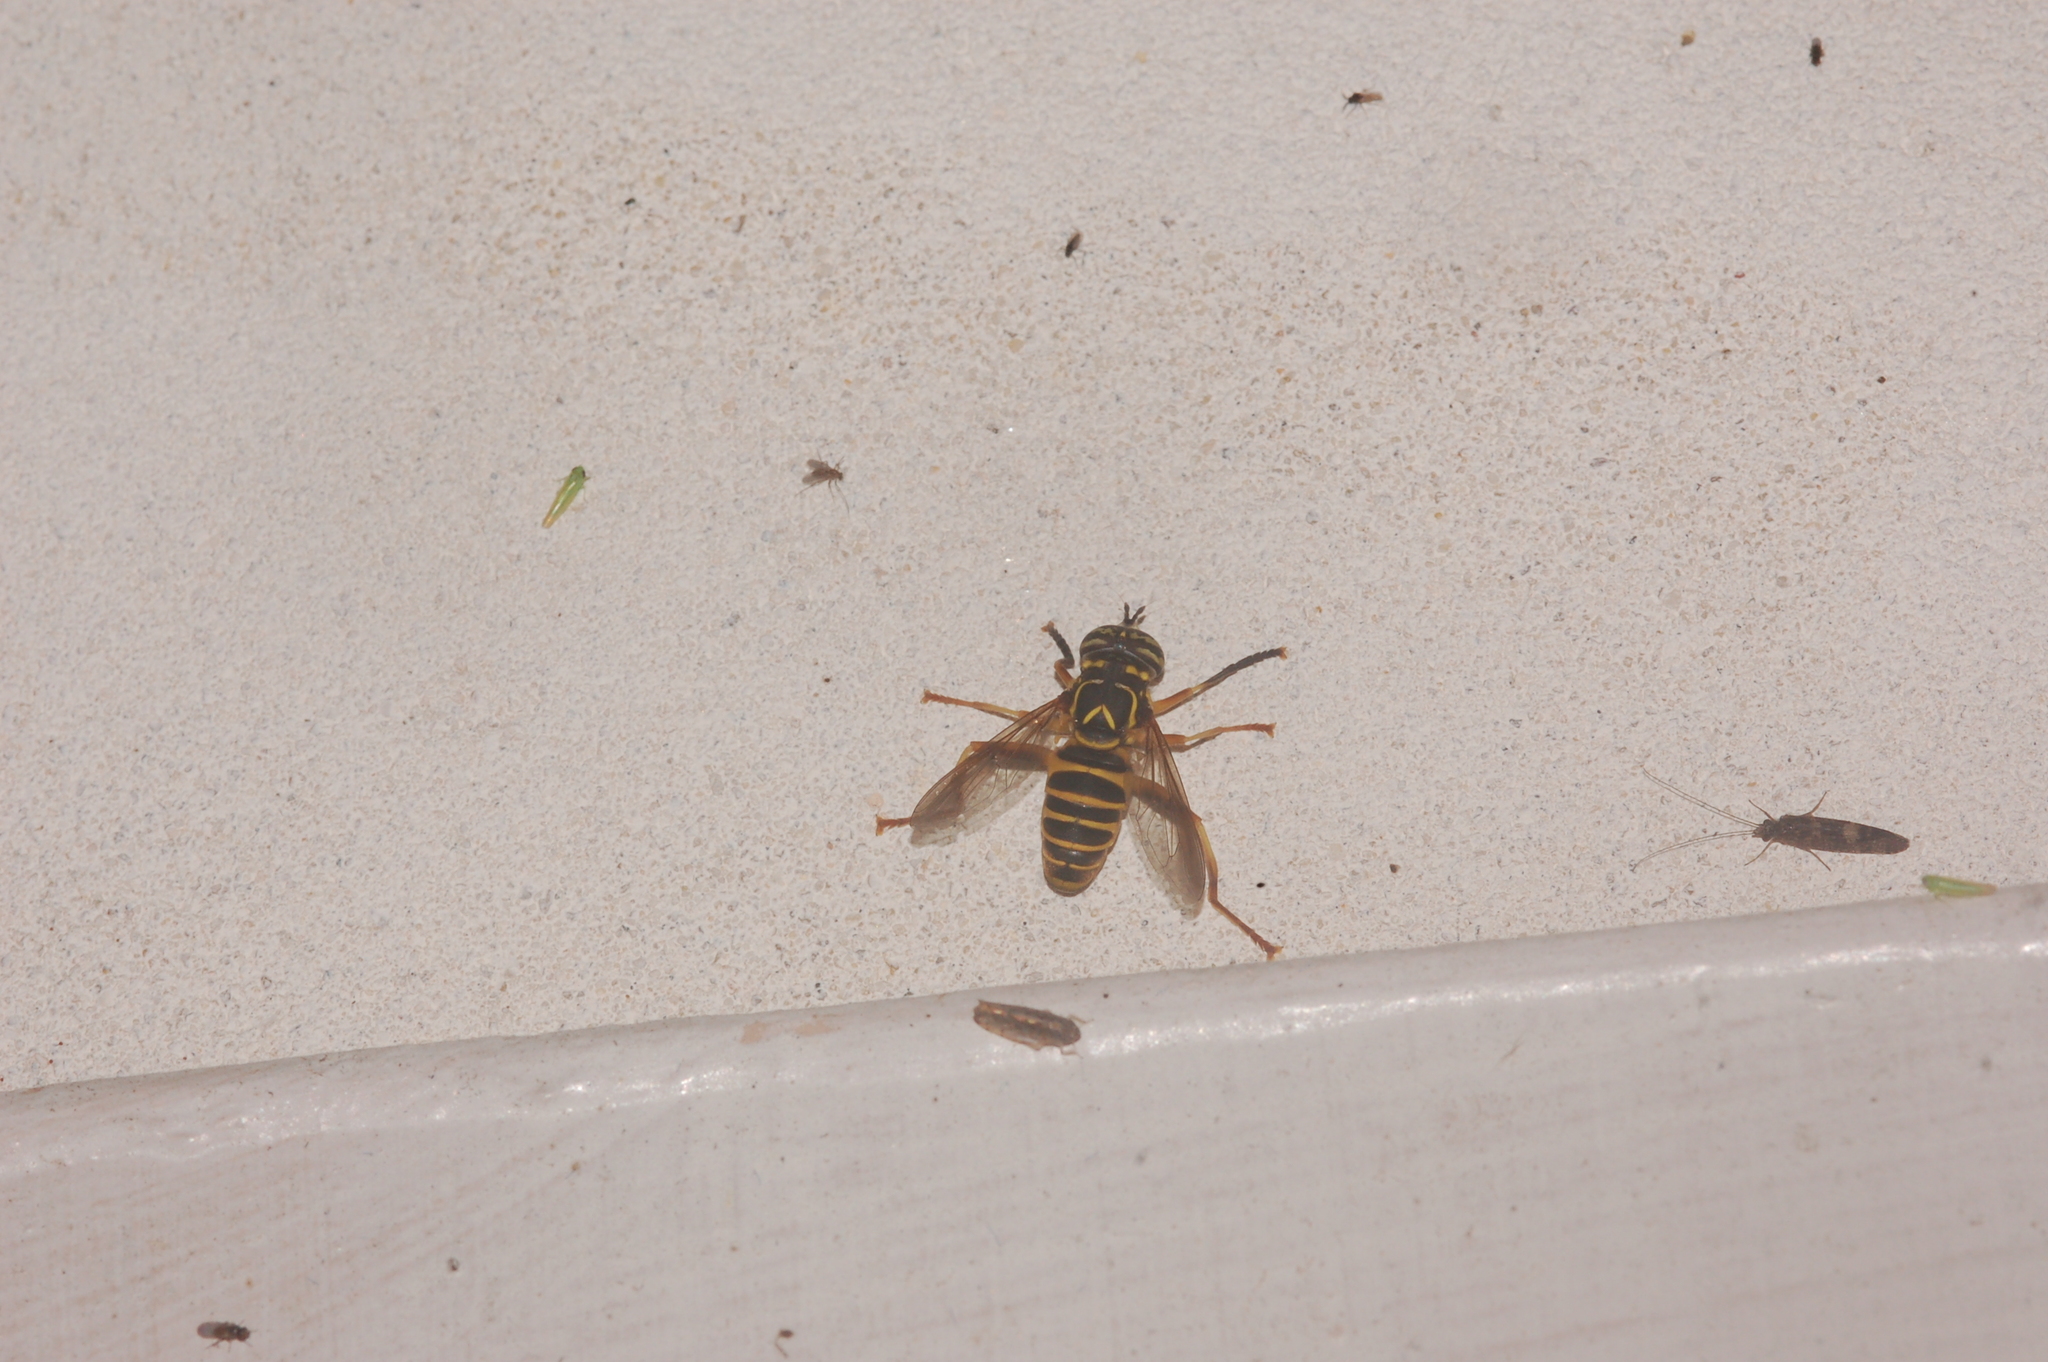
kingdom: Animalia
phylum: Arthropoda
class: Insecta
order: Diptera
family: Syrphidae
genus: Spilomyia
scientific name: Spilomyia longicornis
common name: Eastern hornet fly
